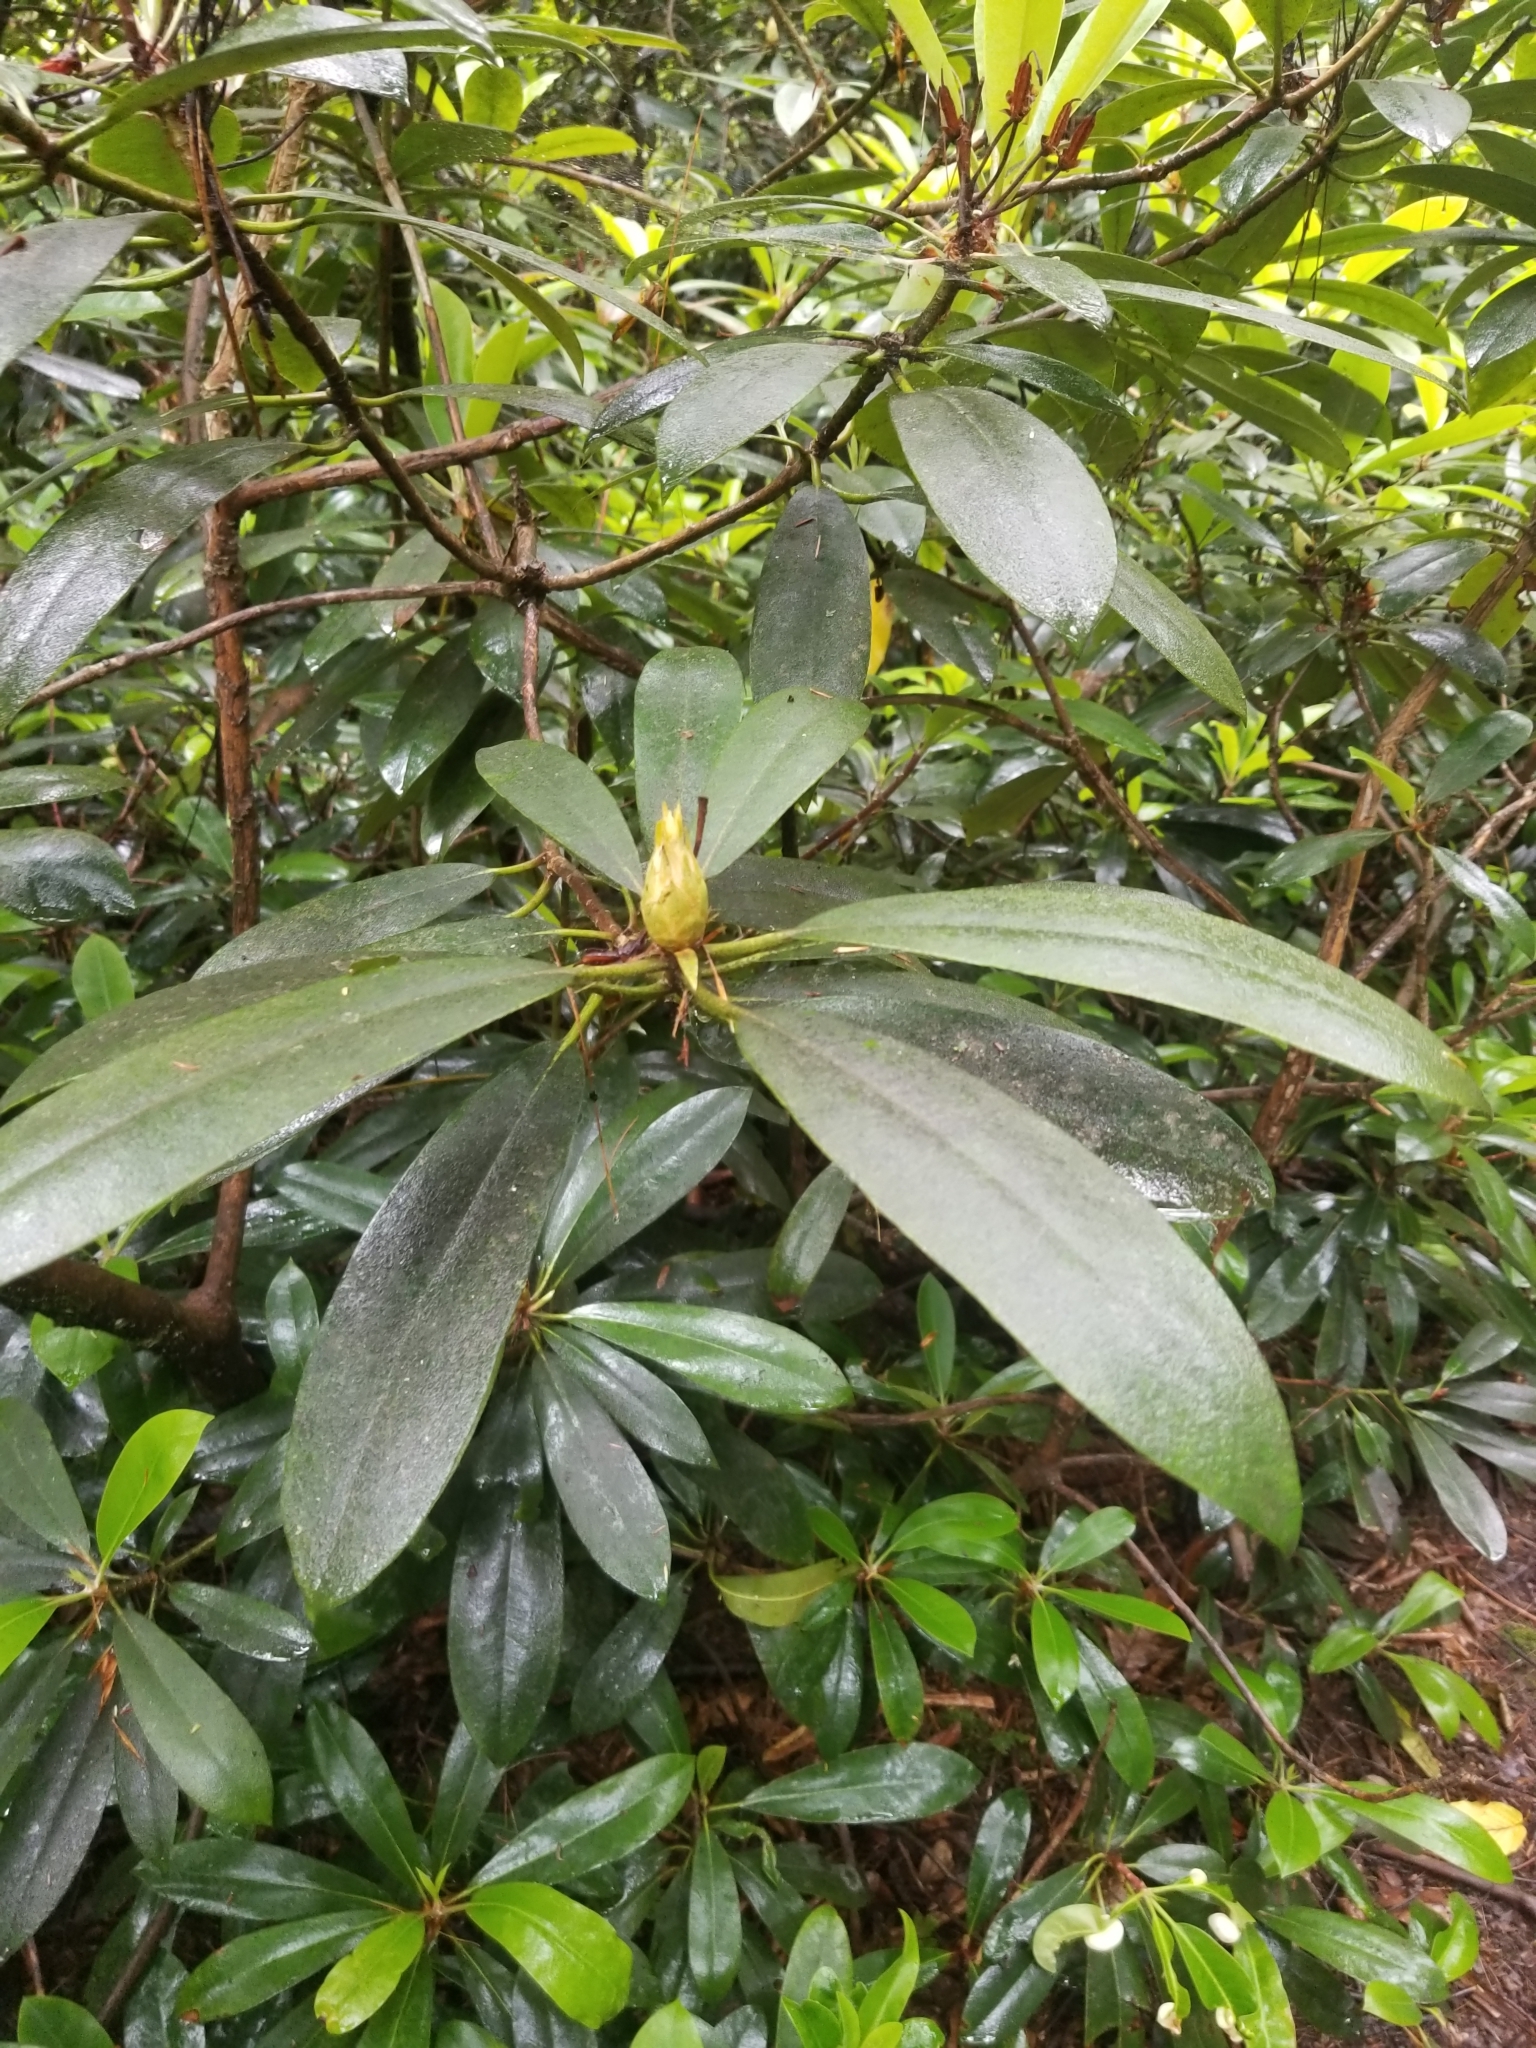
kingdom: Plantae
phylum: Tracheophyta
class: Magnoliopsida
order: Ericales
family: Ericaceae
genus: Rhododendron
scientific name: Rhododendron maximum
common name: Great rhododendron
